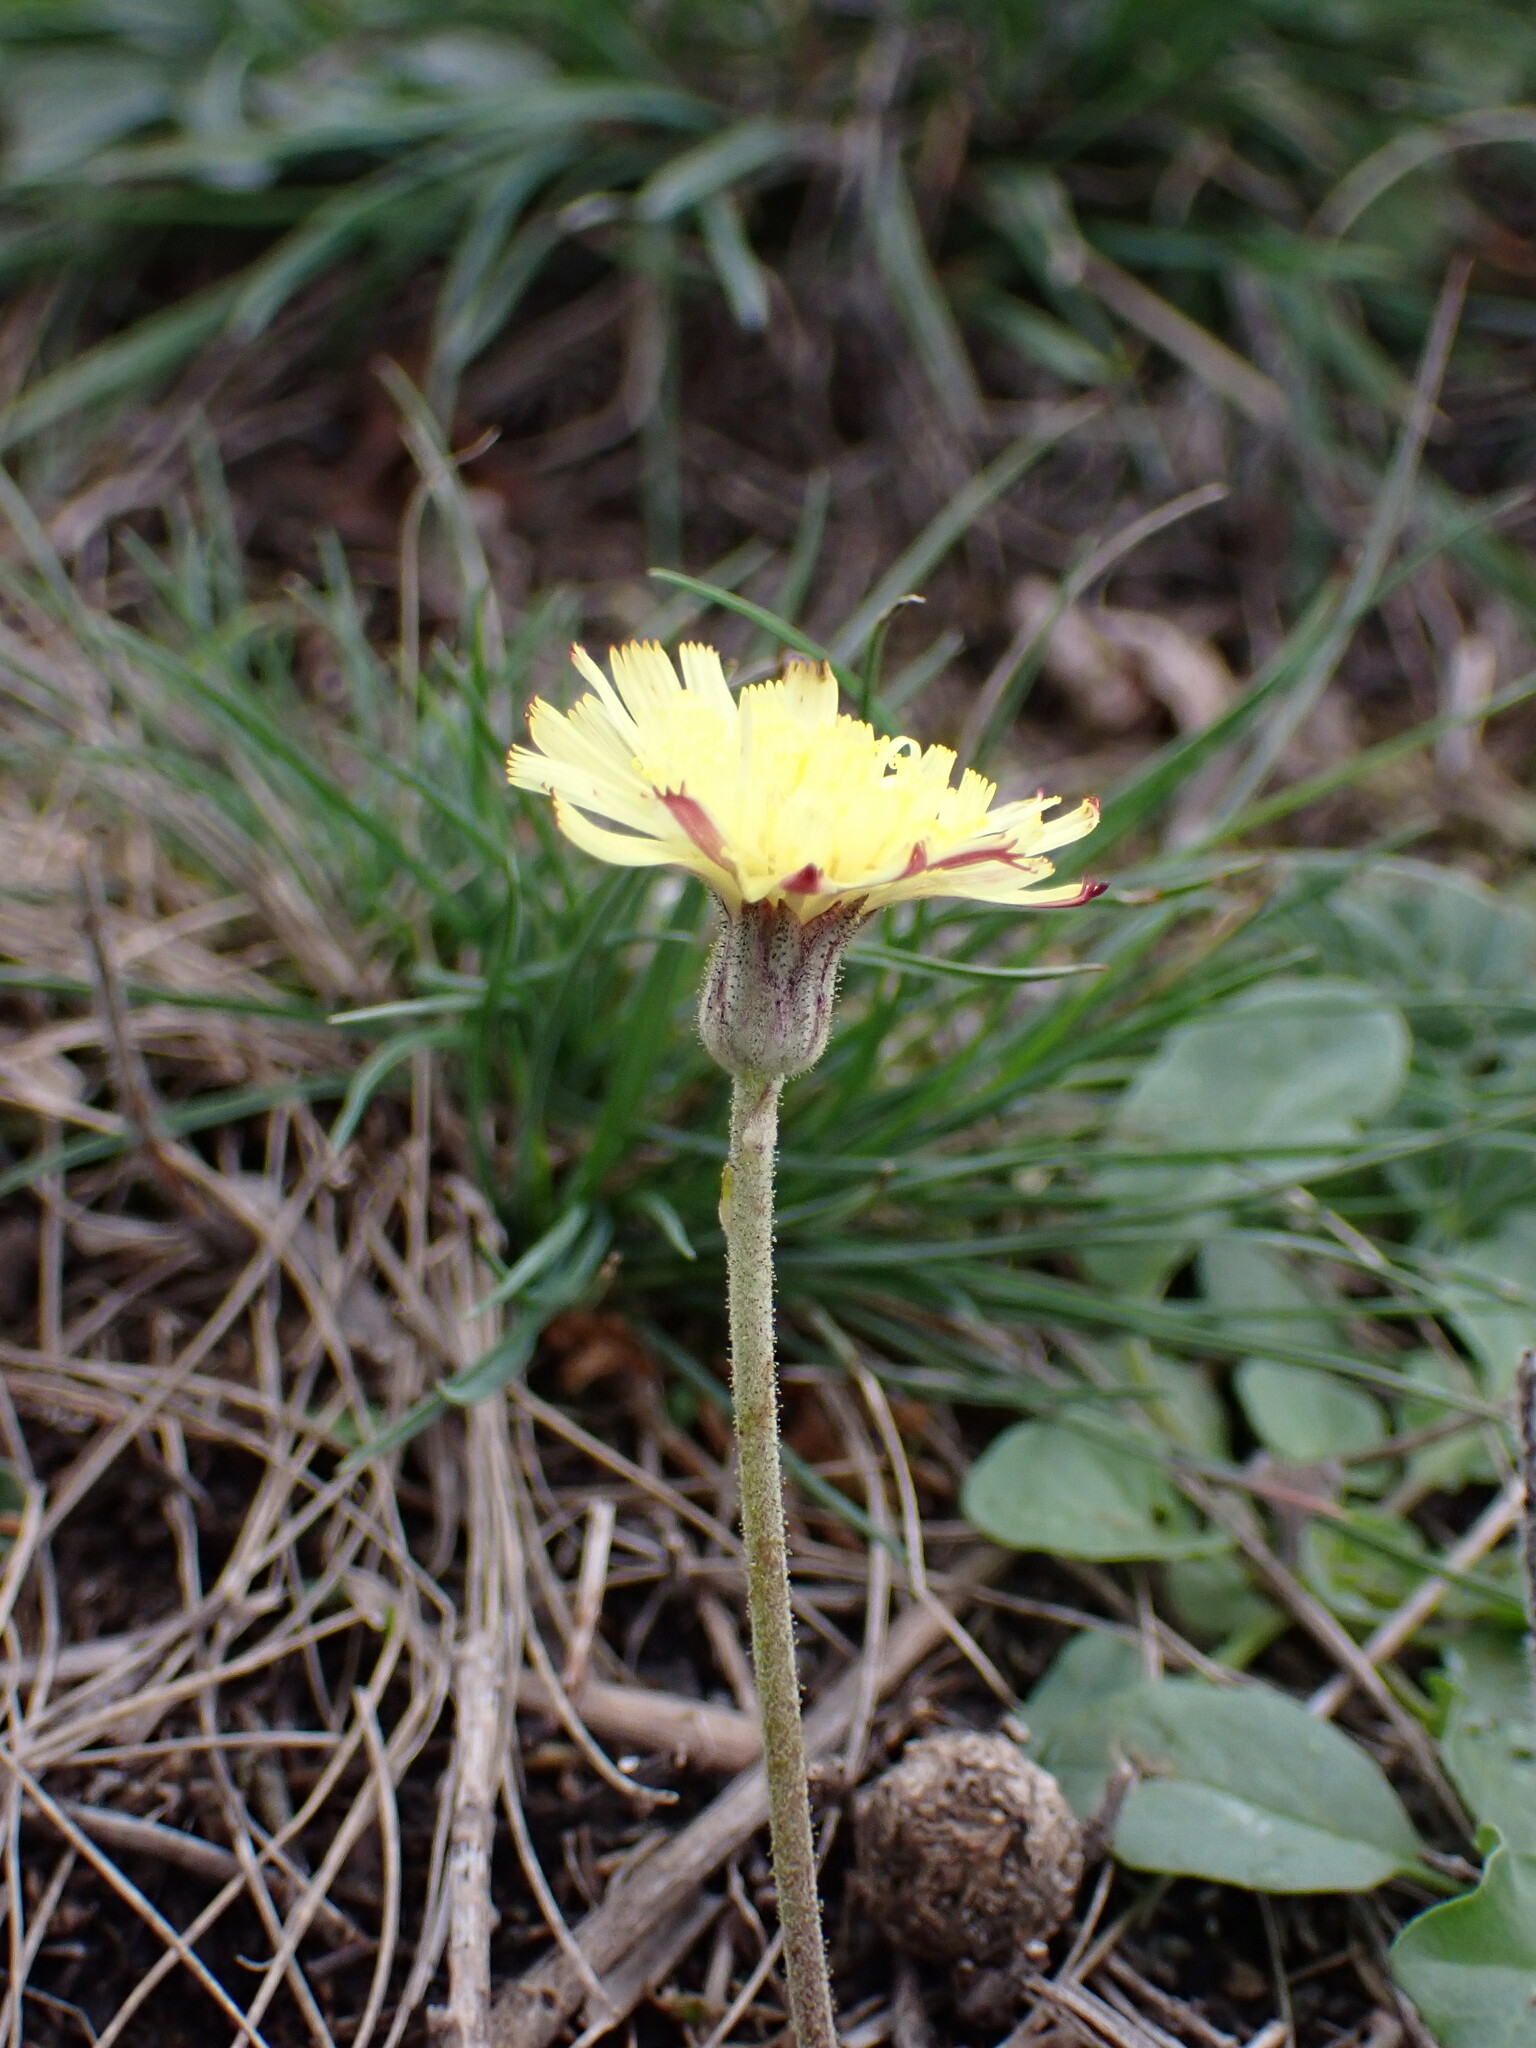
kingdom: Plantae
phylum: Tracheophyta
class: Magnoliopsida
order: Asterales
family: Asteraceae
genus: Pilosella
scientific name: Pilosella officinarum
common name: Mouse-ear hawkweed
